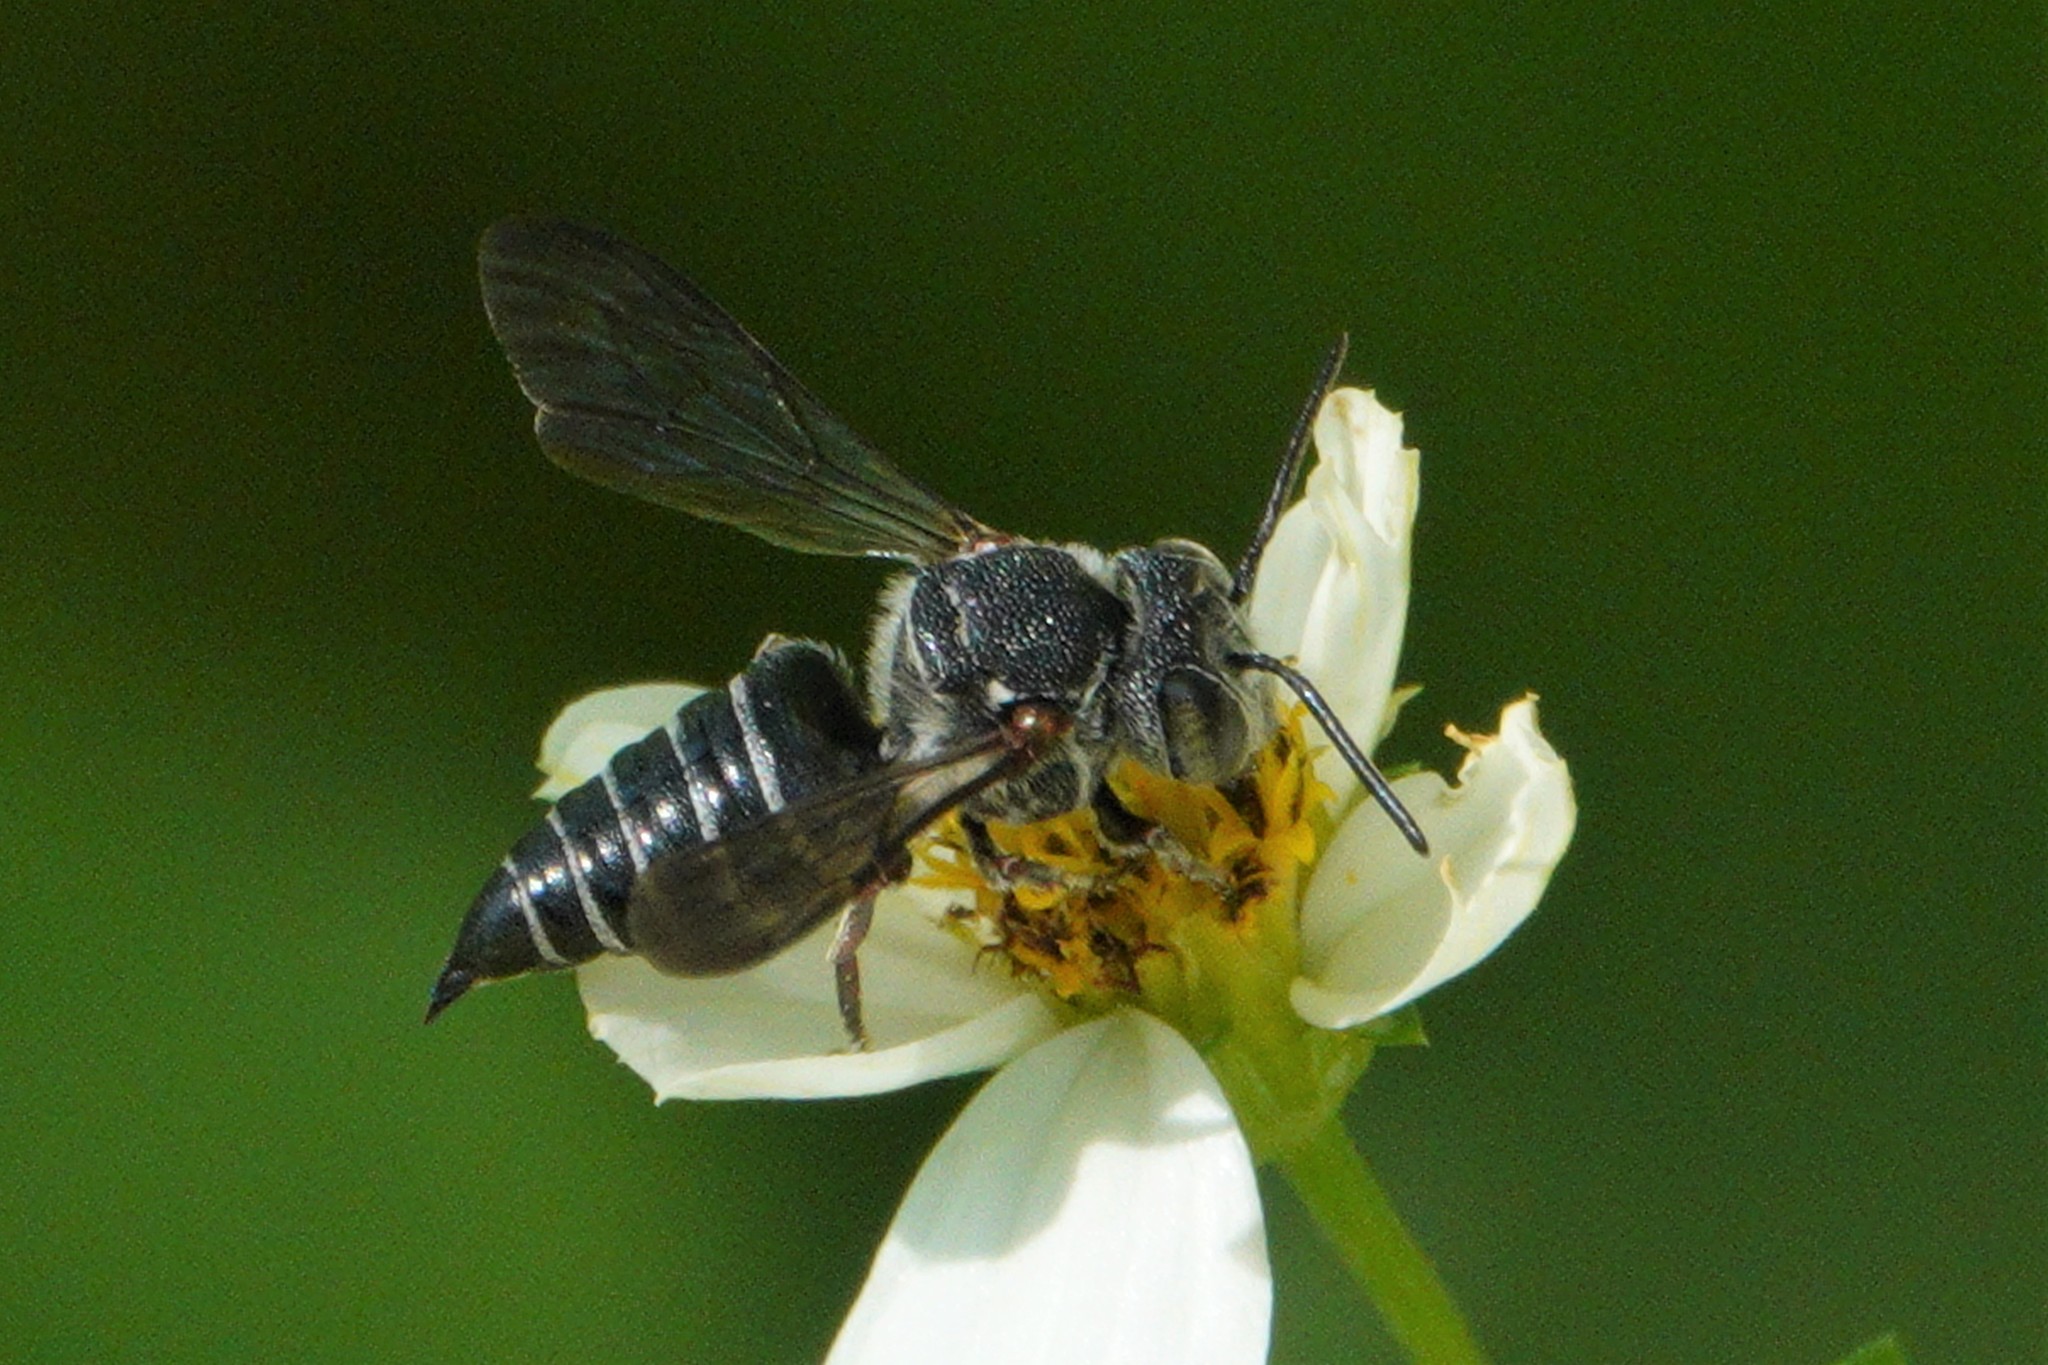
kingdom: Animalia
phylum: Arthropoda
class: Insecta
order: Hymenoptera
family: Megachilidae
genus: Coelioxys
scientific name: Coelioxys sayi
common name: Say's cuckoo leaf-cutter bee
